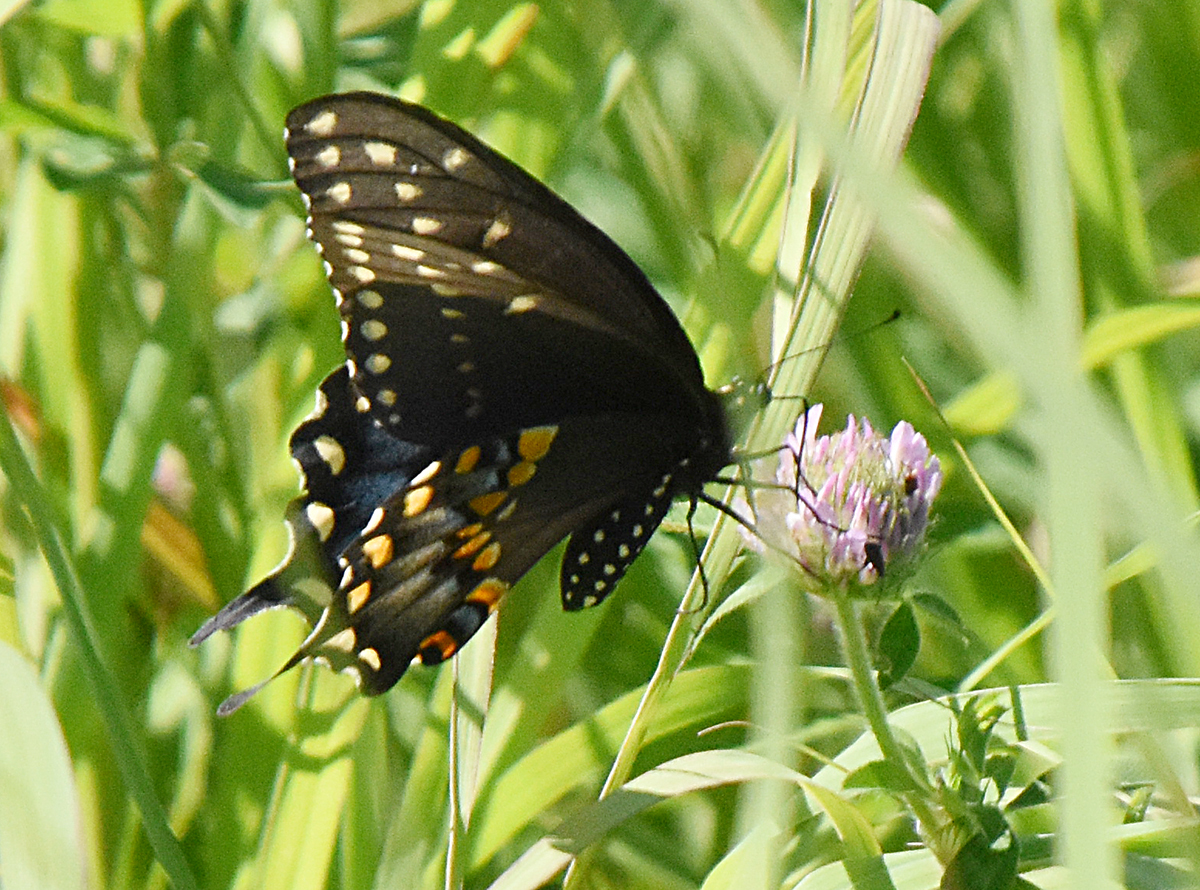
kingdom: Animalia
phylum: Arthropoda
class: Insecta
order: Lepidoptera
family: Papilionidae
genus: Papilio
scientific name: Papilio polyxenes
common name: Black swallowtail
